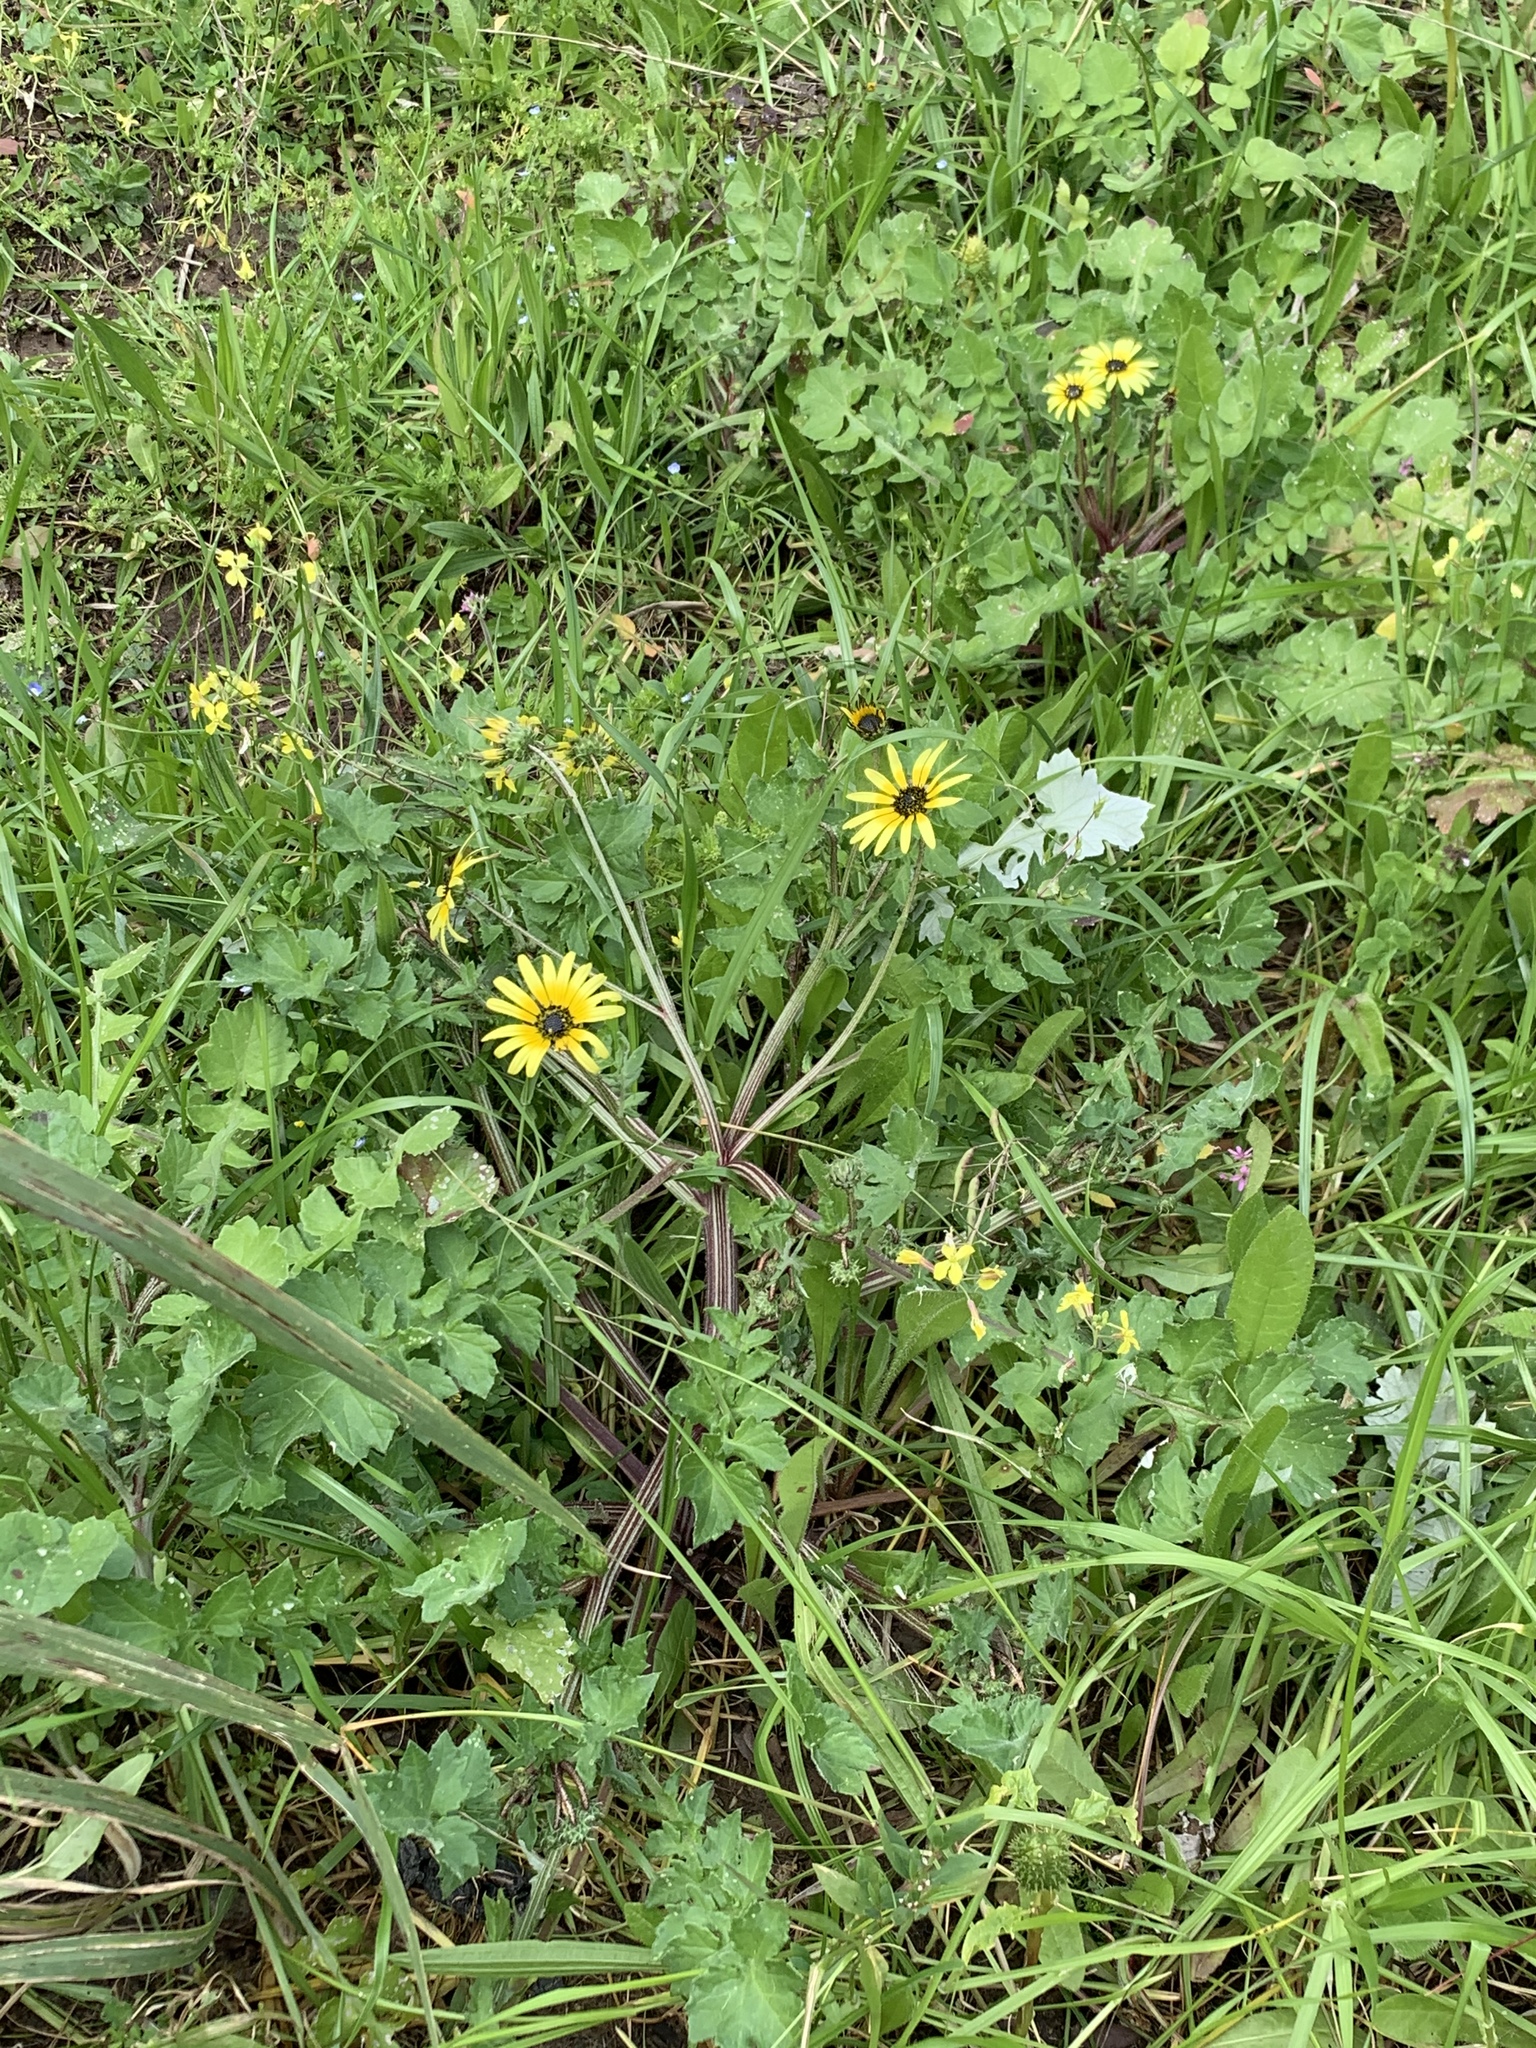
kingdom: Plantae
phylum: Tracheophyta
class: Magnoliopsida
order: Asterales
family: Asteraceae
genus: Arctotheca
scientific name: Arctotheca calendula
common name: Capeweed
